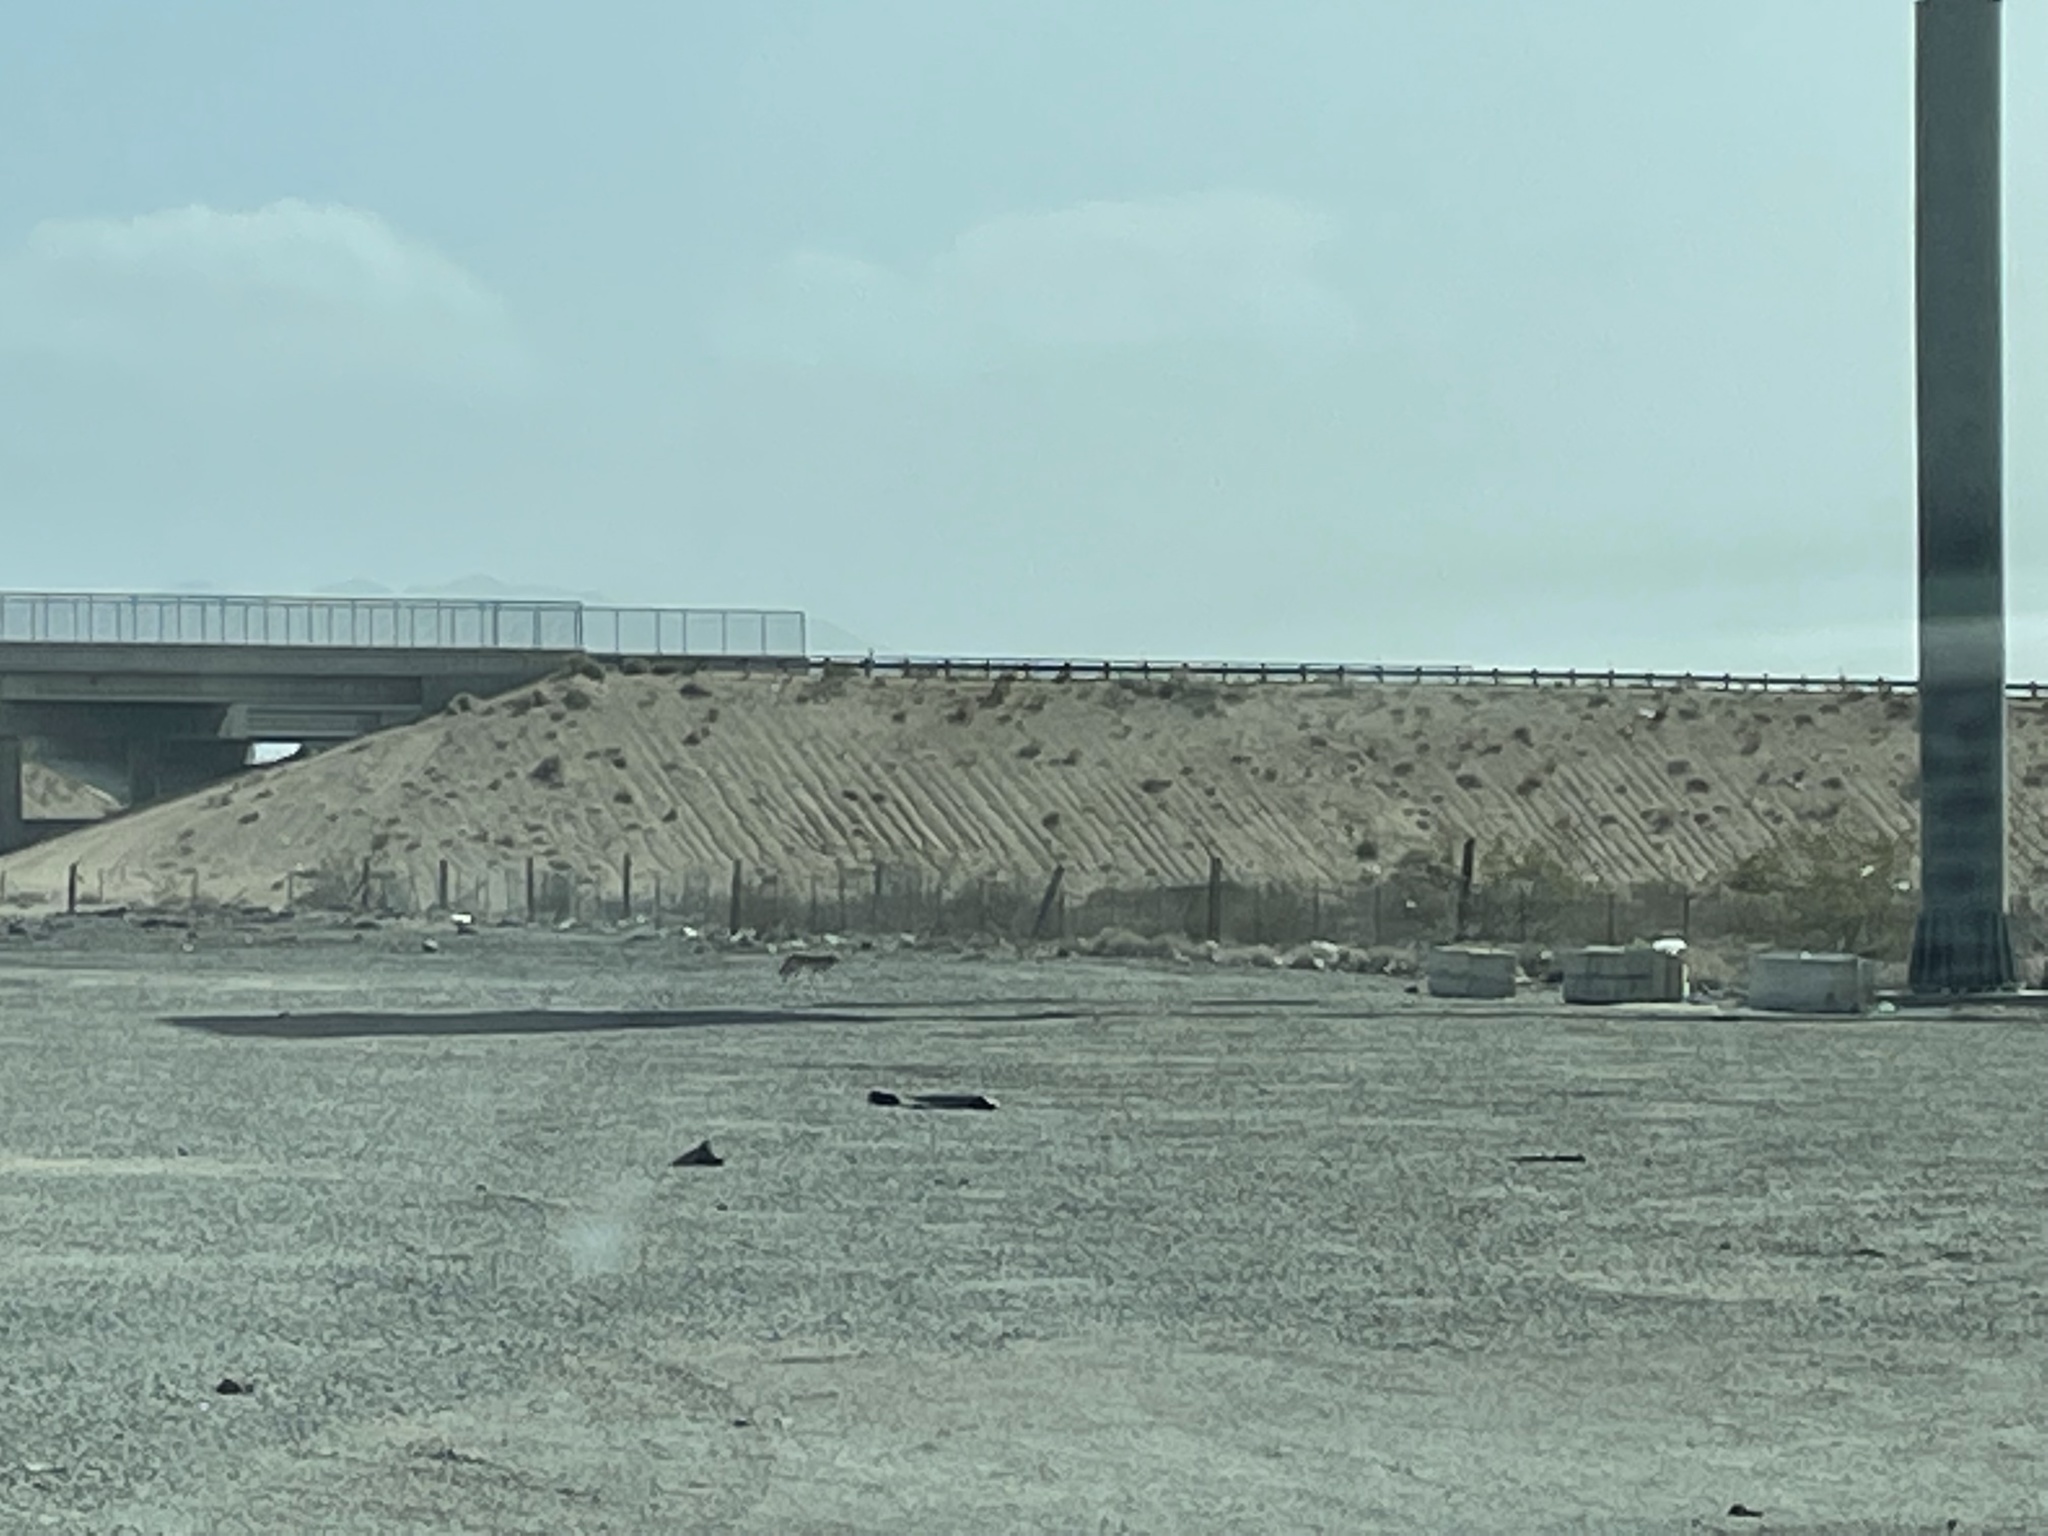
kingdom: Animalia
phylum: Chordata
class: Mammalia
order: Carnivora
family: Canidae
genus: Canis
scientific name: Canis latrans
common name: Coyote
